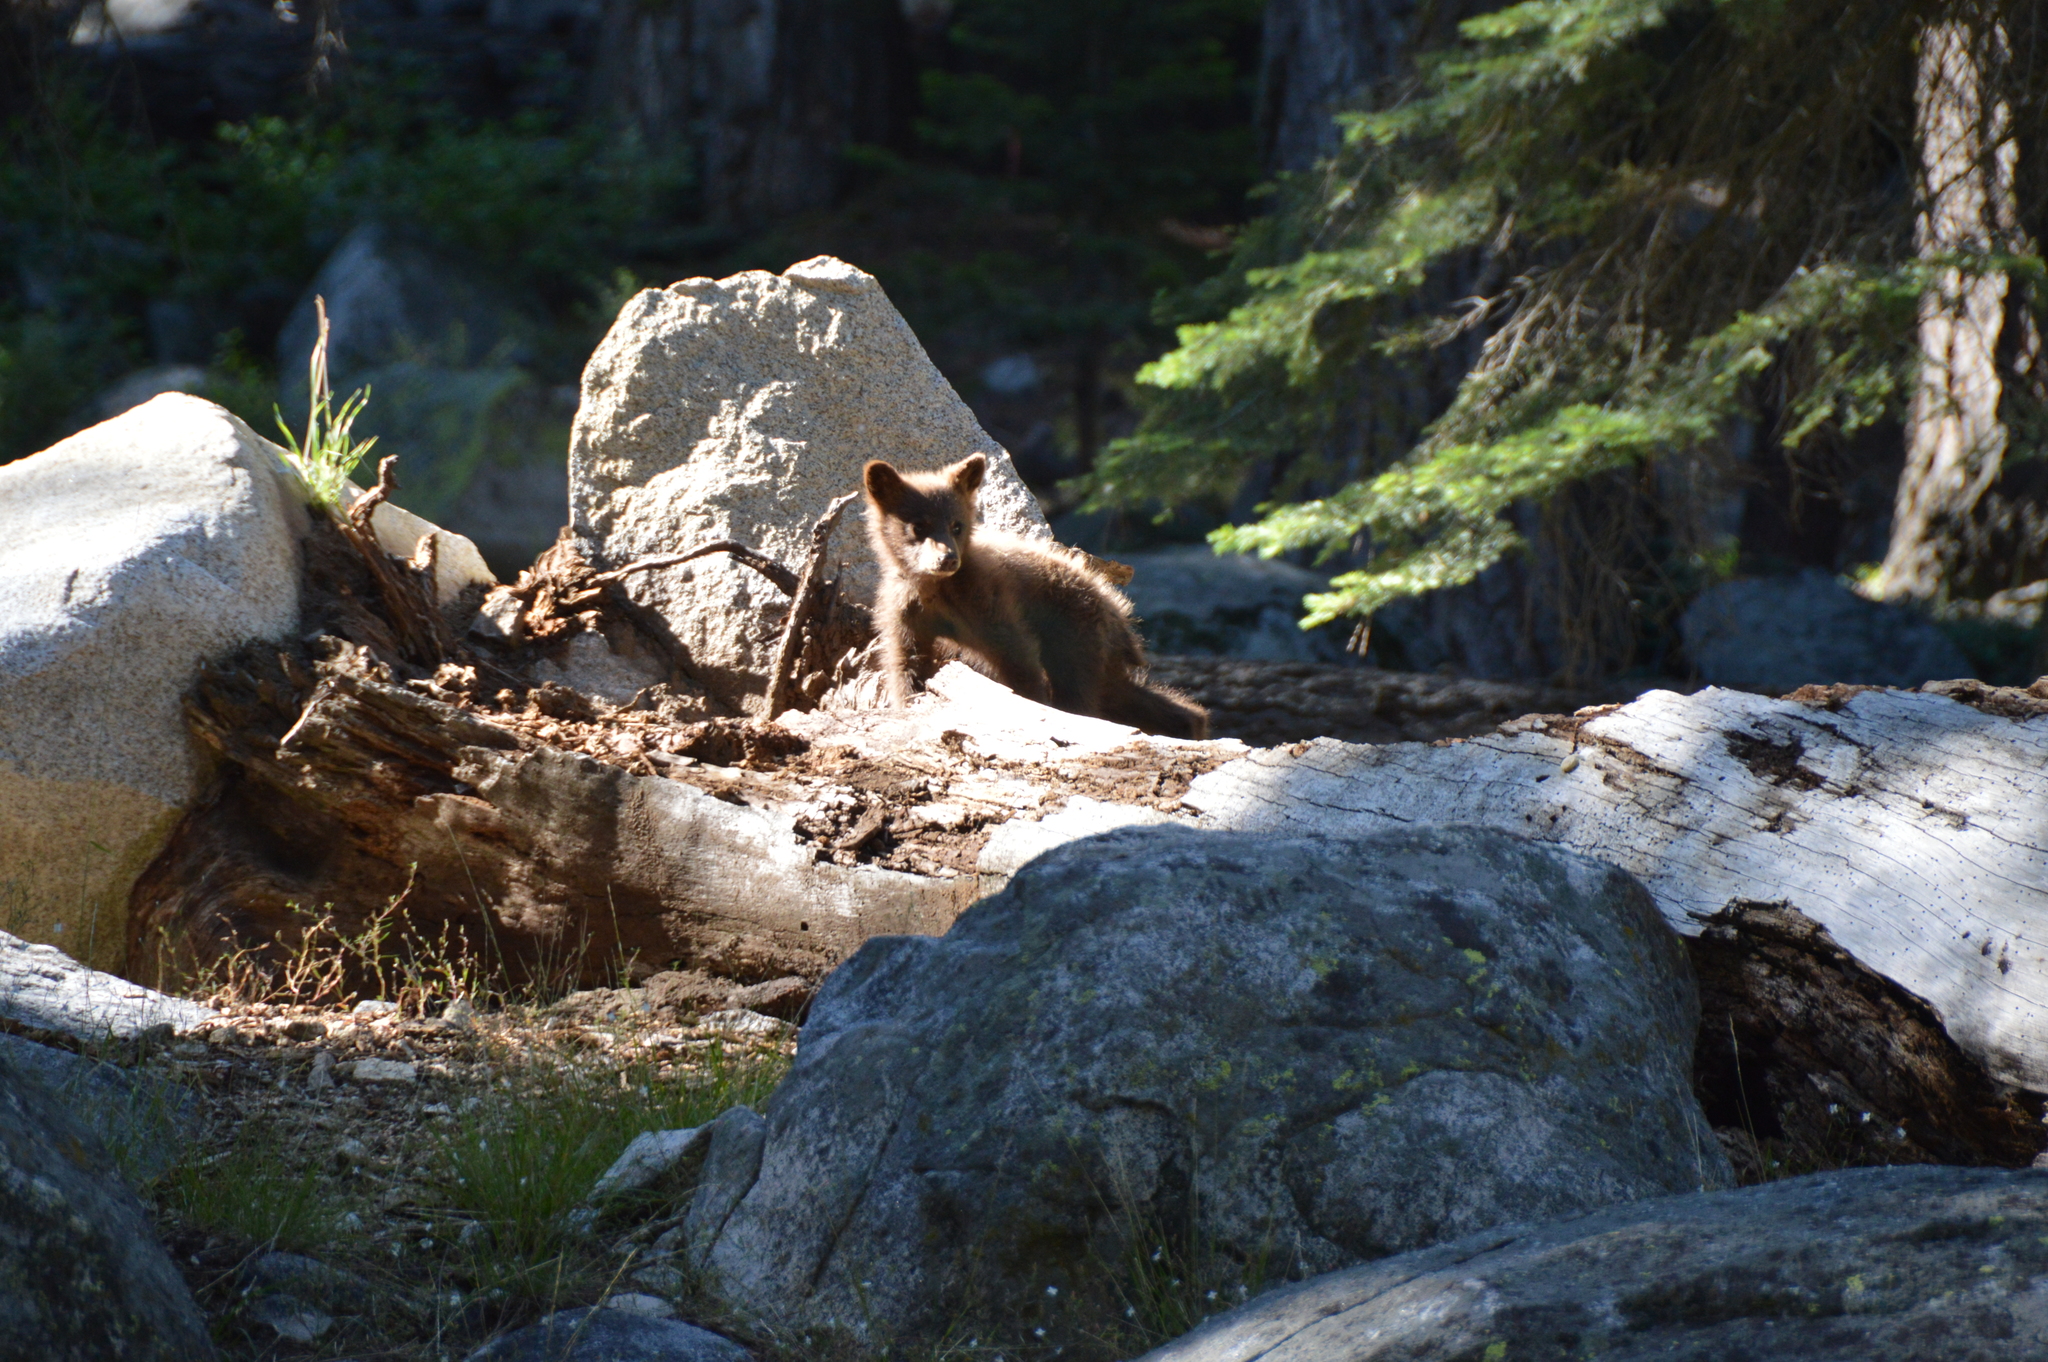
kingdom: Animalia
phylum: Chordata
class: Mammalia
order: Carnivora
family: Ursidae
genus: Ursus
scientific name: Ursus americanus
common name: American black bear
